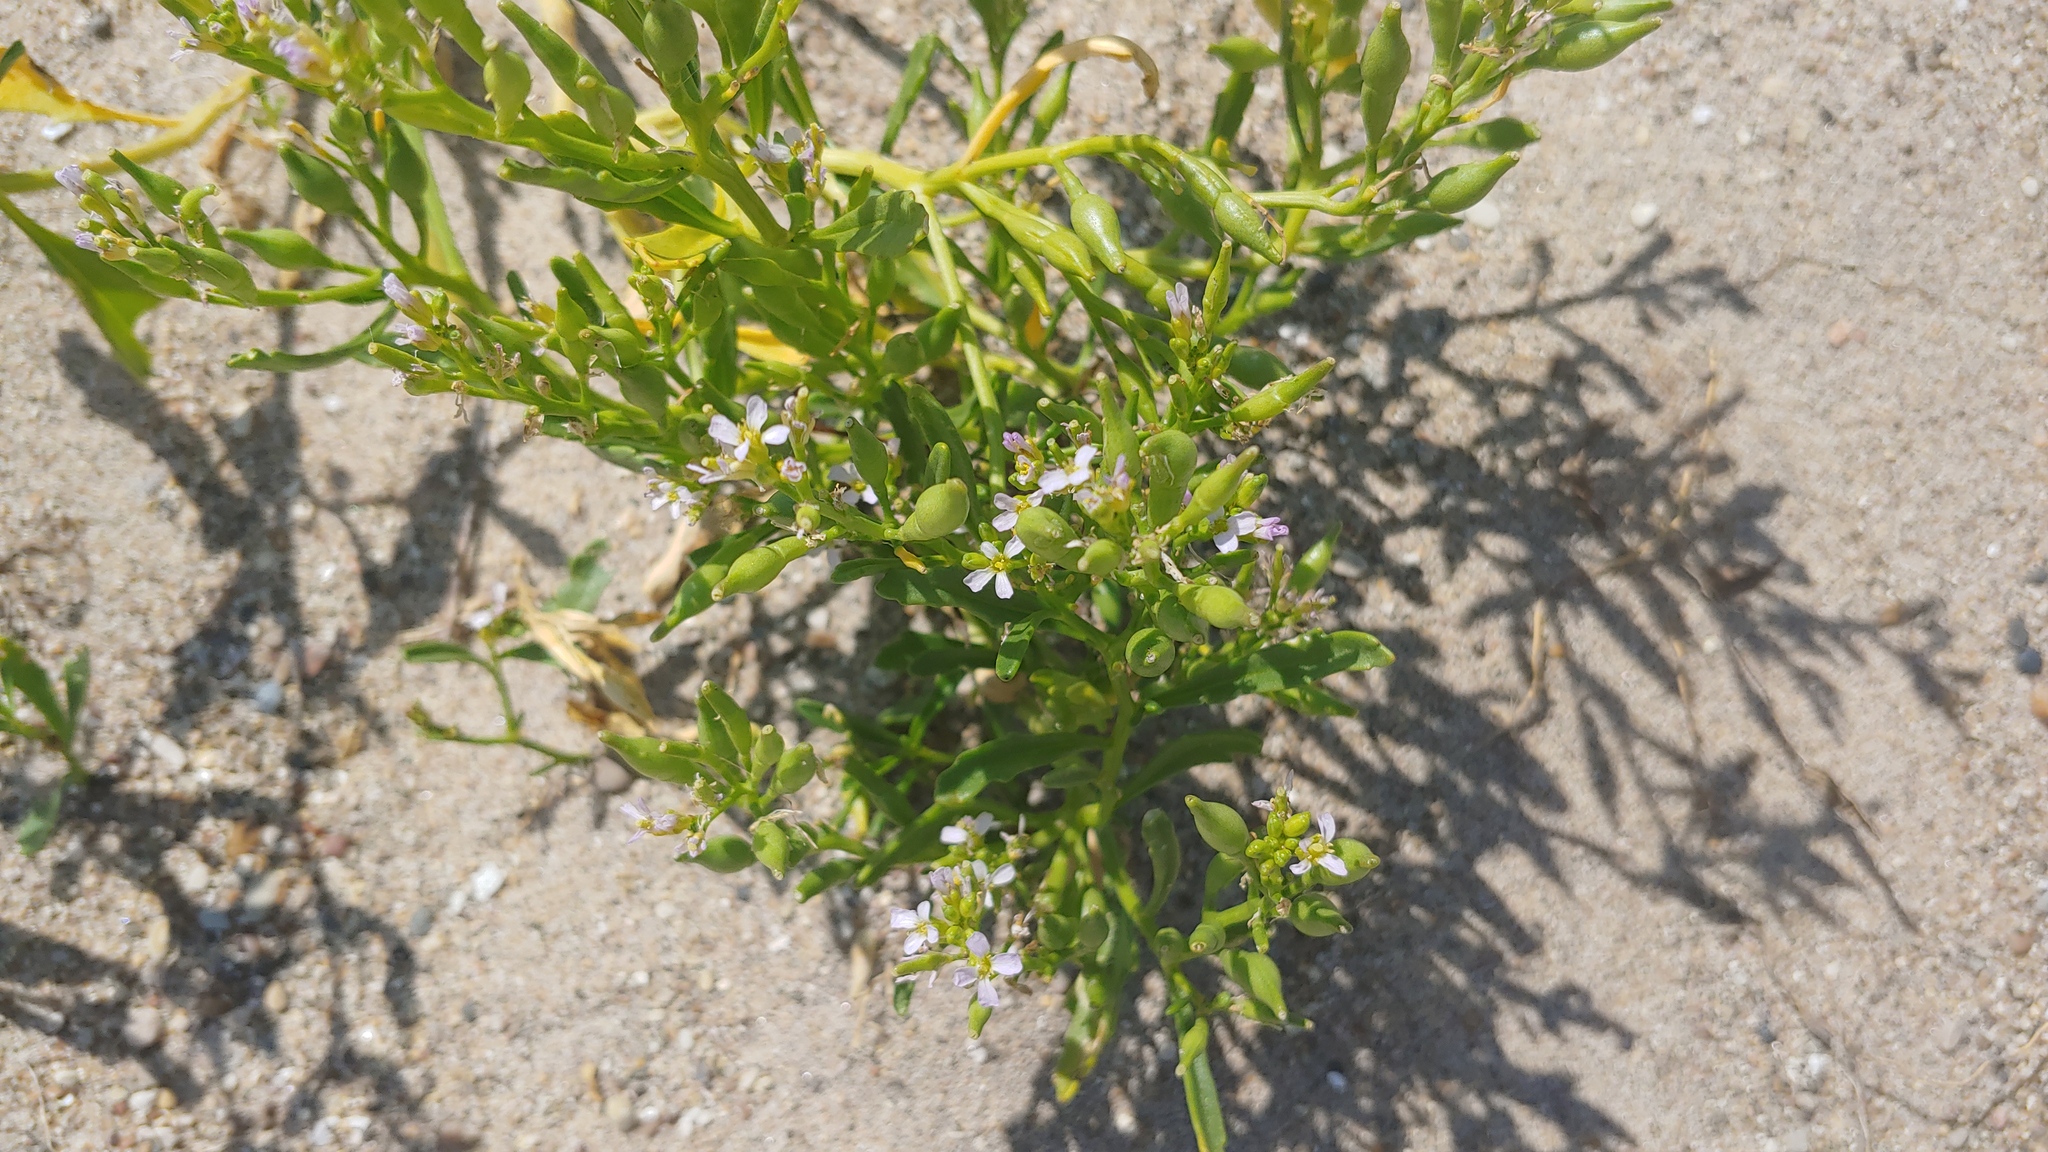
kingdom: Plantae
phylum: Tracheophyta
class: Magnoliopsida
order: Brassicales
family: Brassicaceae
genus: Cakile
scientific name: Cakile edentula
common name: American sea rocket
